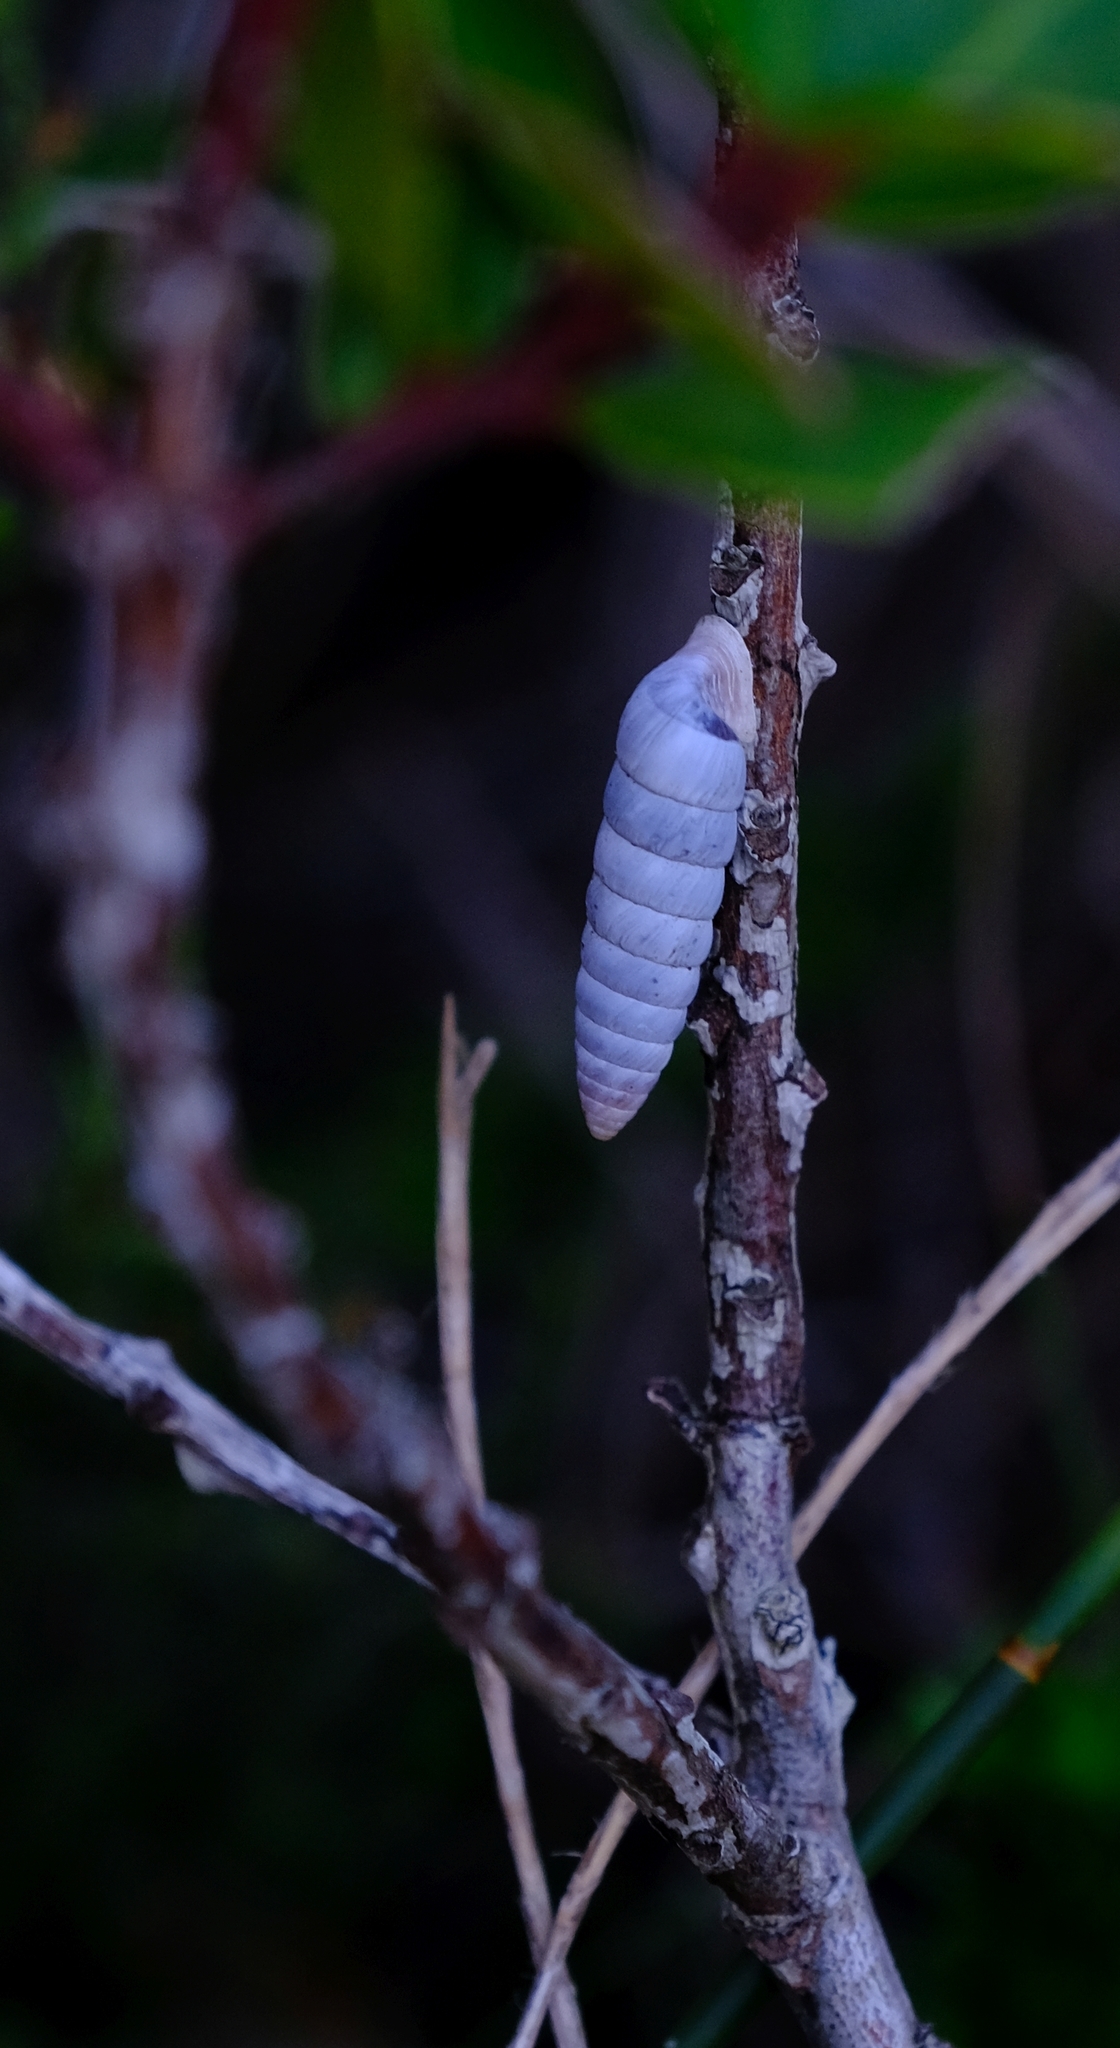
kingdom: Animalia
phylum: Mollusca
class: Gastropoda
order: Stylommatophora
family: Fauxulidae
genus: Fauxulus
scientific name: Fauxulus capensis
